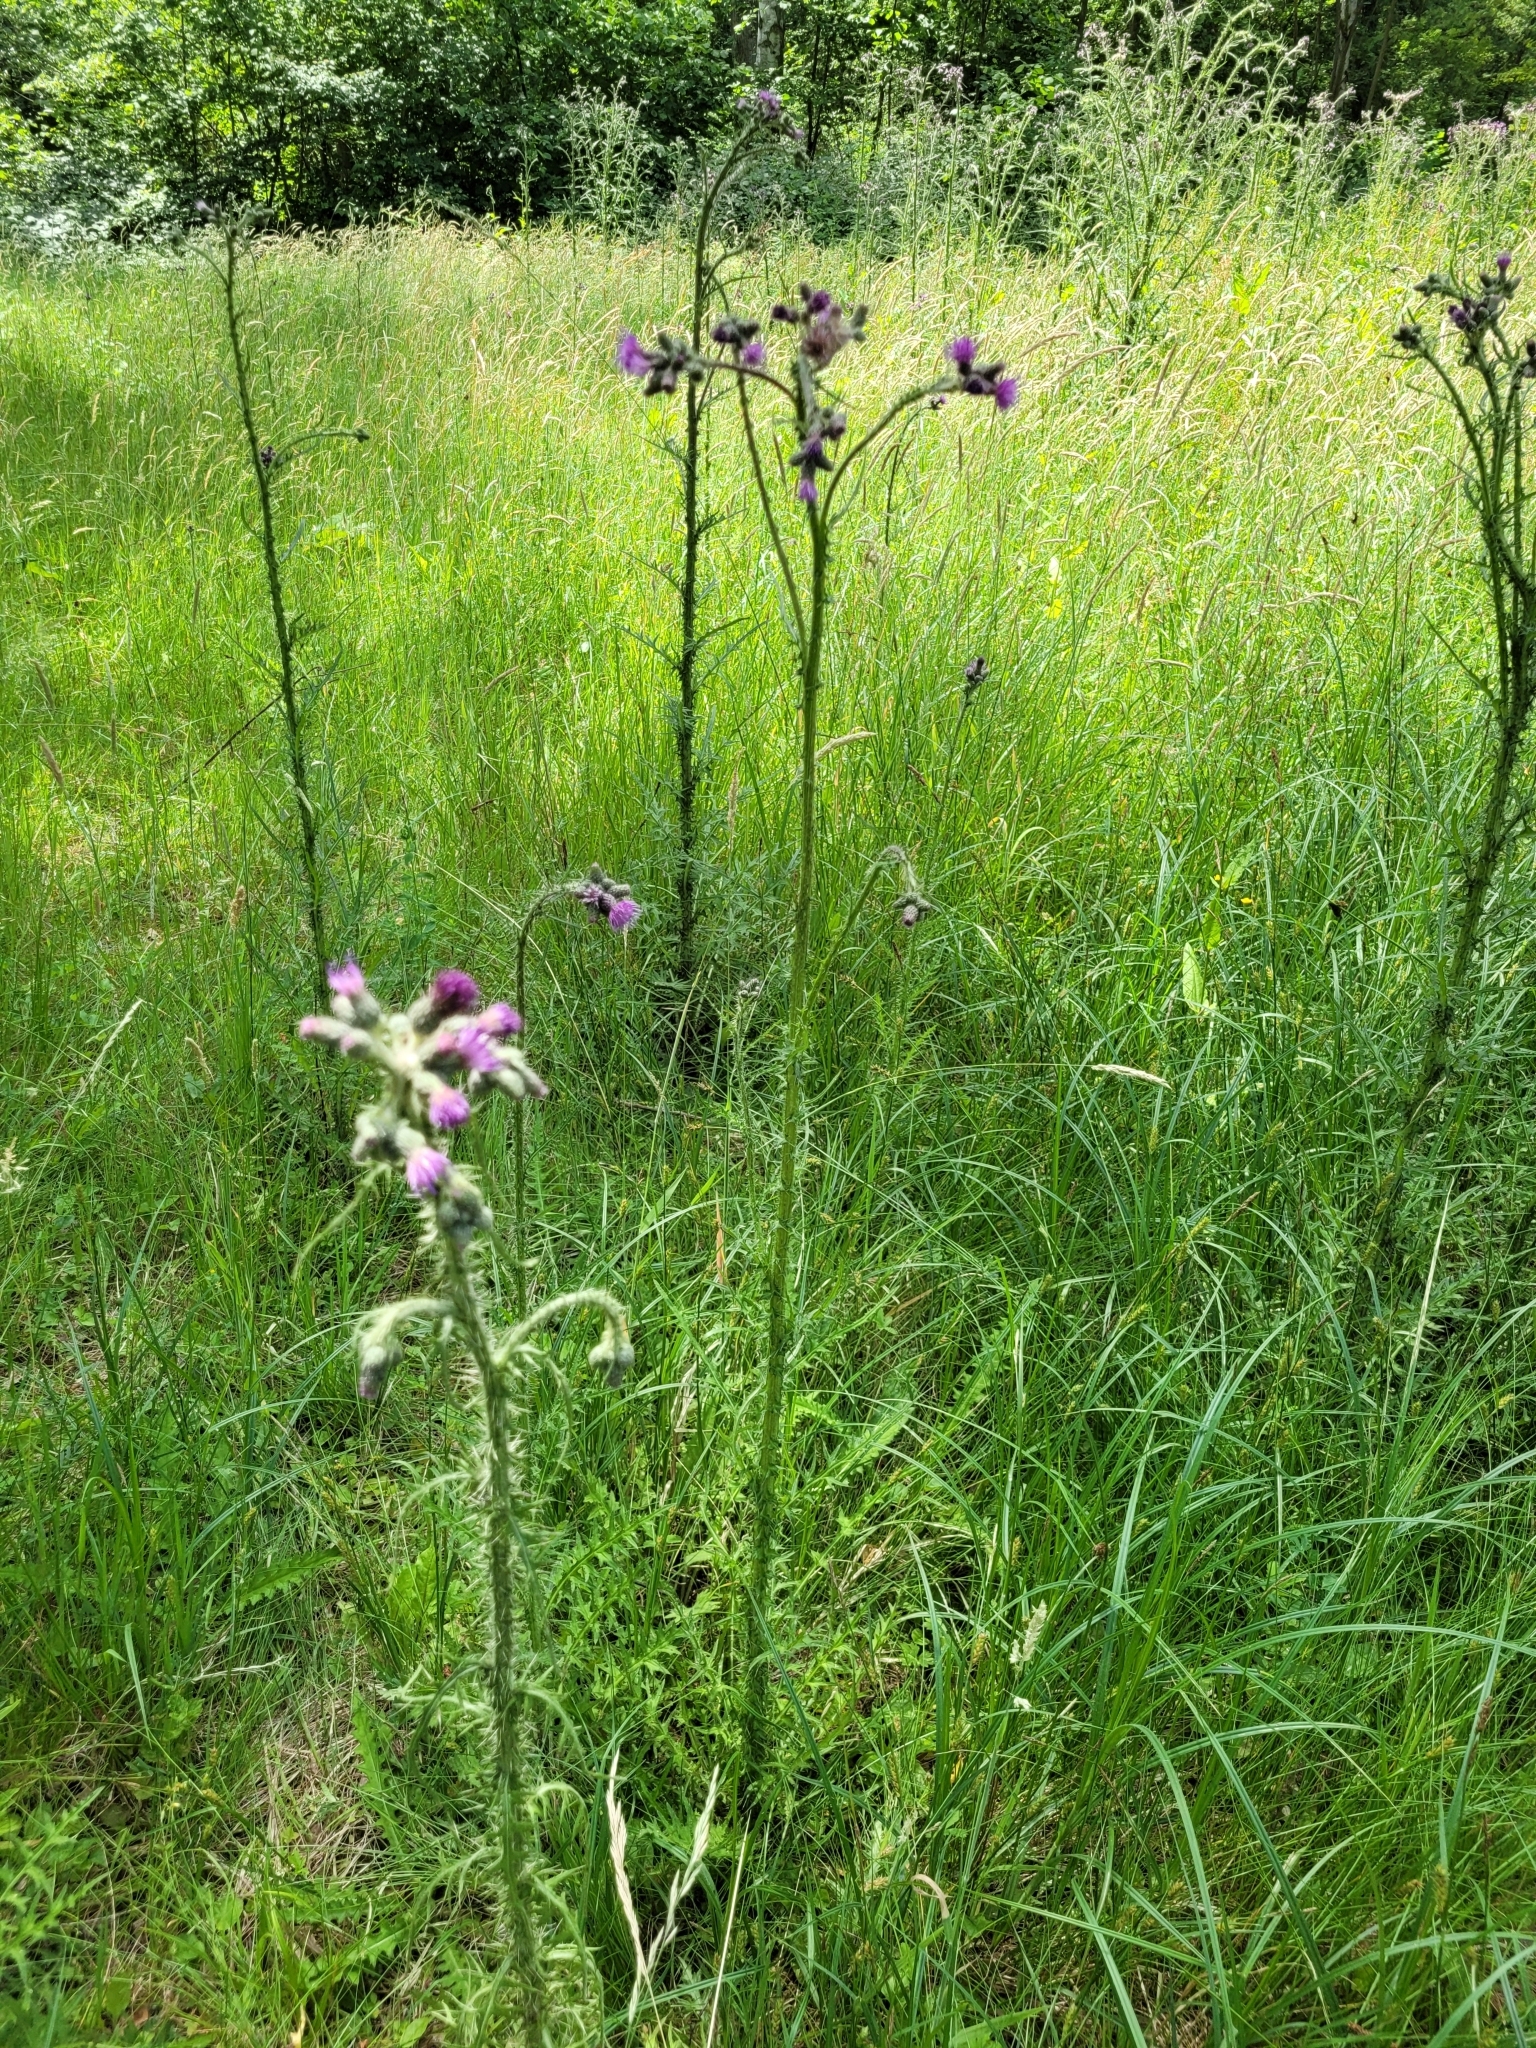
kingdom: Plantae
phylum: Tracheophyta
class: Magnoliopsida
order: Asterales
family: Asteraceae
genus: Cirsium
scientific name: Cirsium palustre
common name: Marsh thistle
